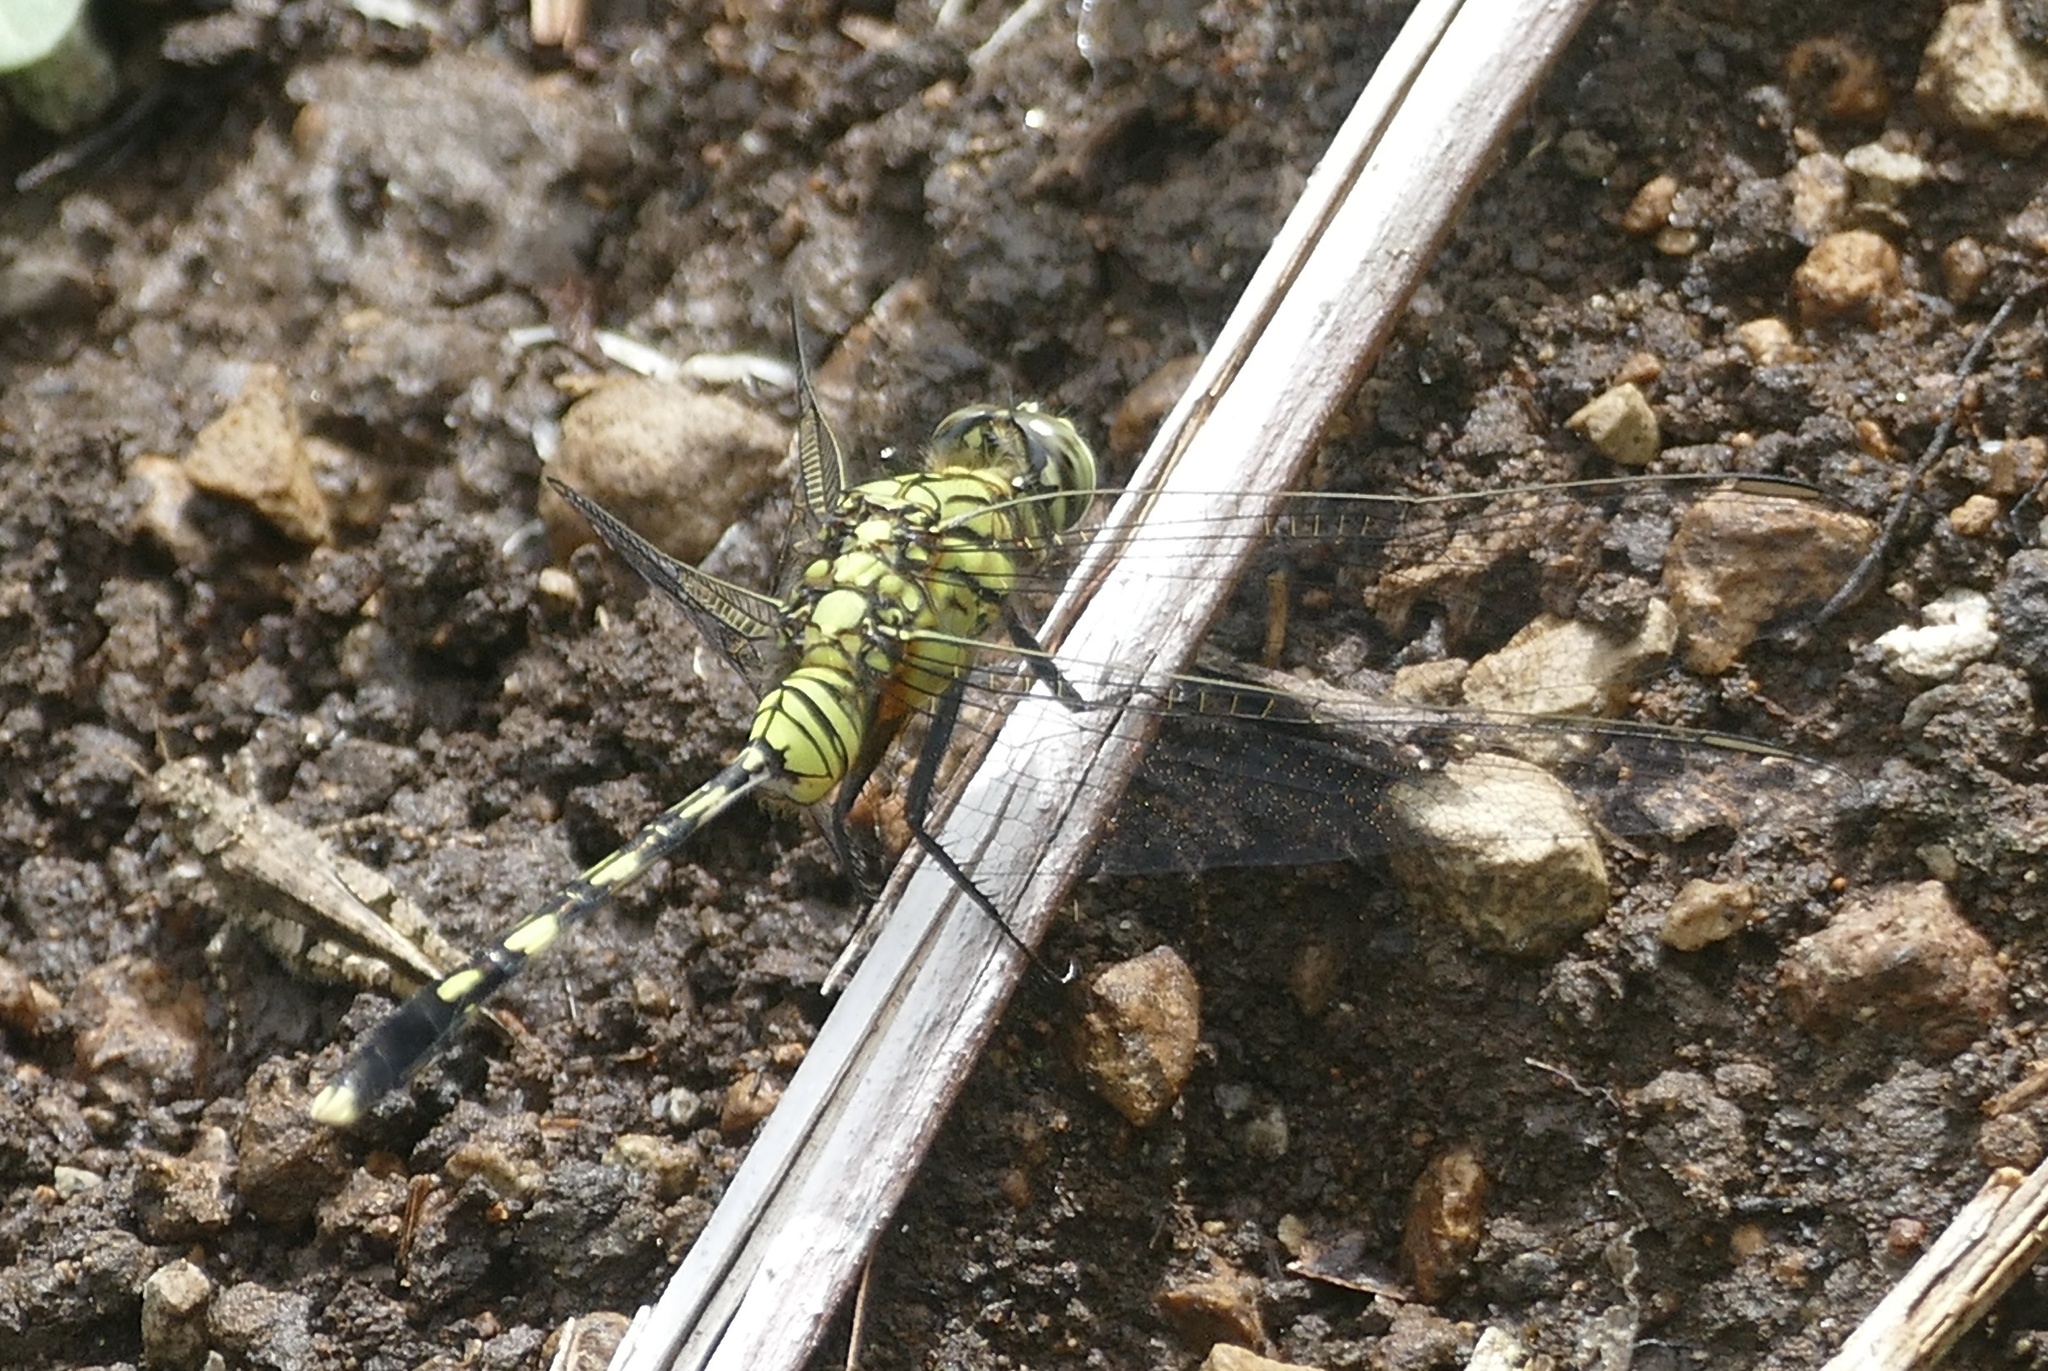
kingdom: Animalia
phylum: Arthropoda
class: Insecta
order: Odonata
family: Libellulidae
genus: Orthetrum
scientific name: Orthetrum serapia
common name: Green skimmer
